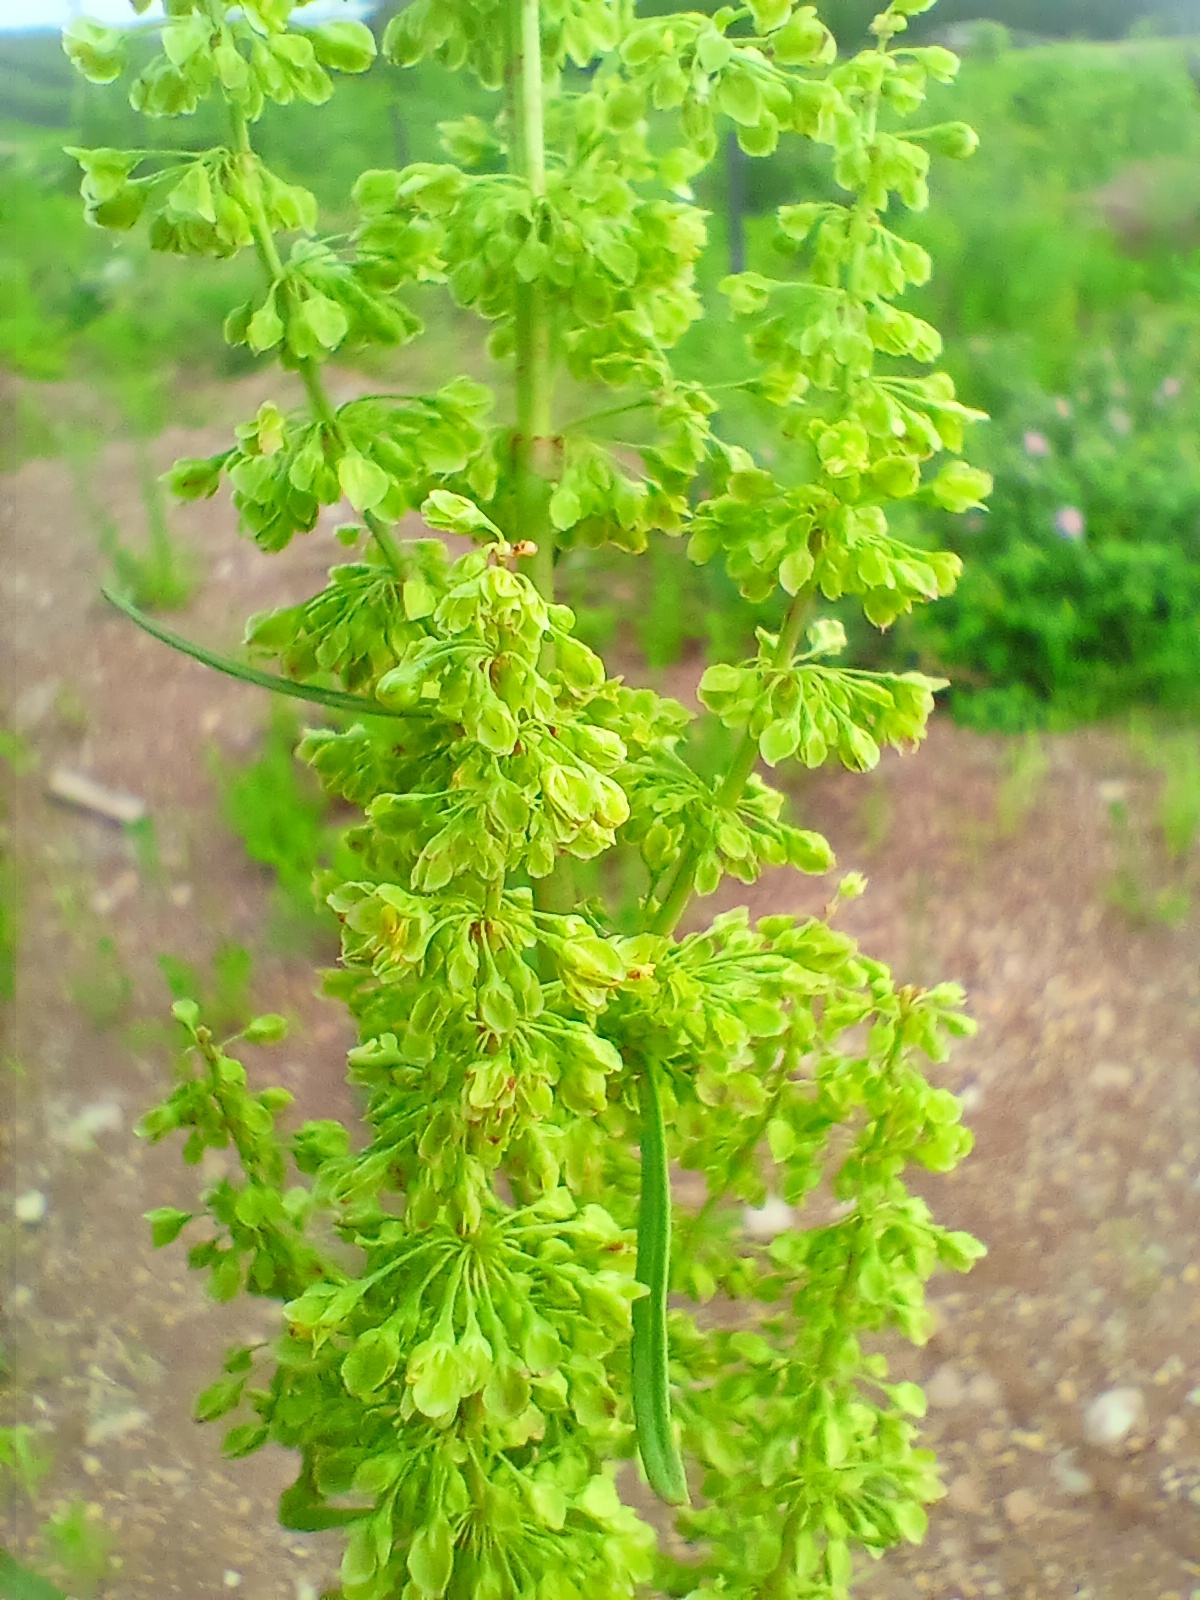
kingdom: Plantae
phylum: Tracheophyta
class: Magnoliopsida
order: Caryophyllales
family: Polygonaceae
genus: Rumex
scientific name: Rumex pseudonatronatus
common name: Field dock
